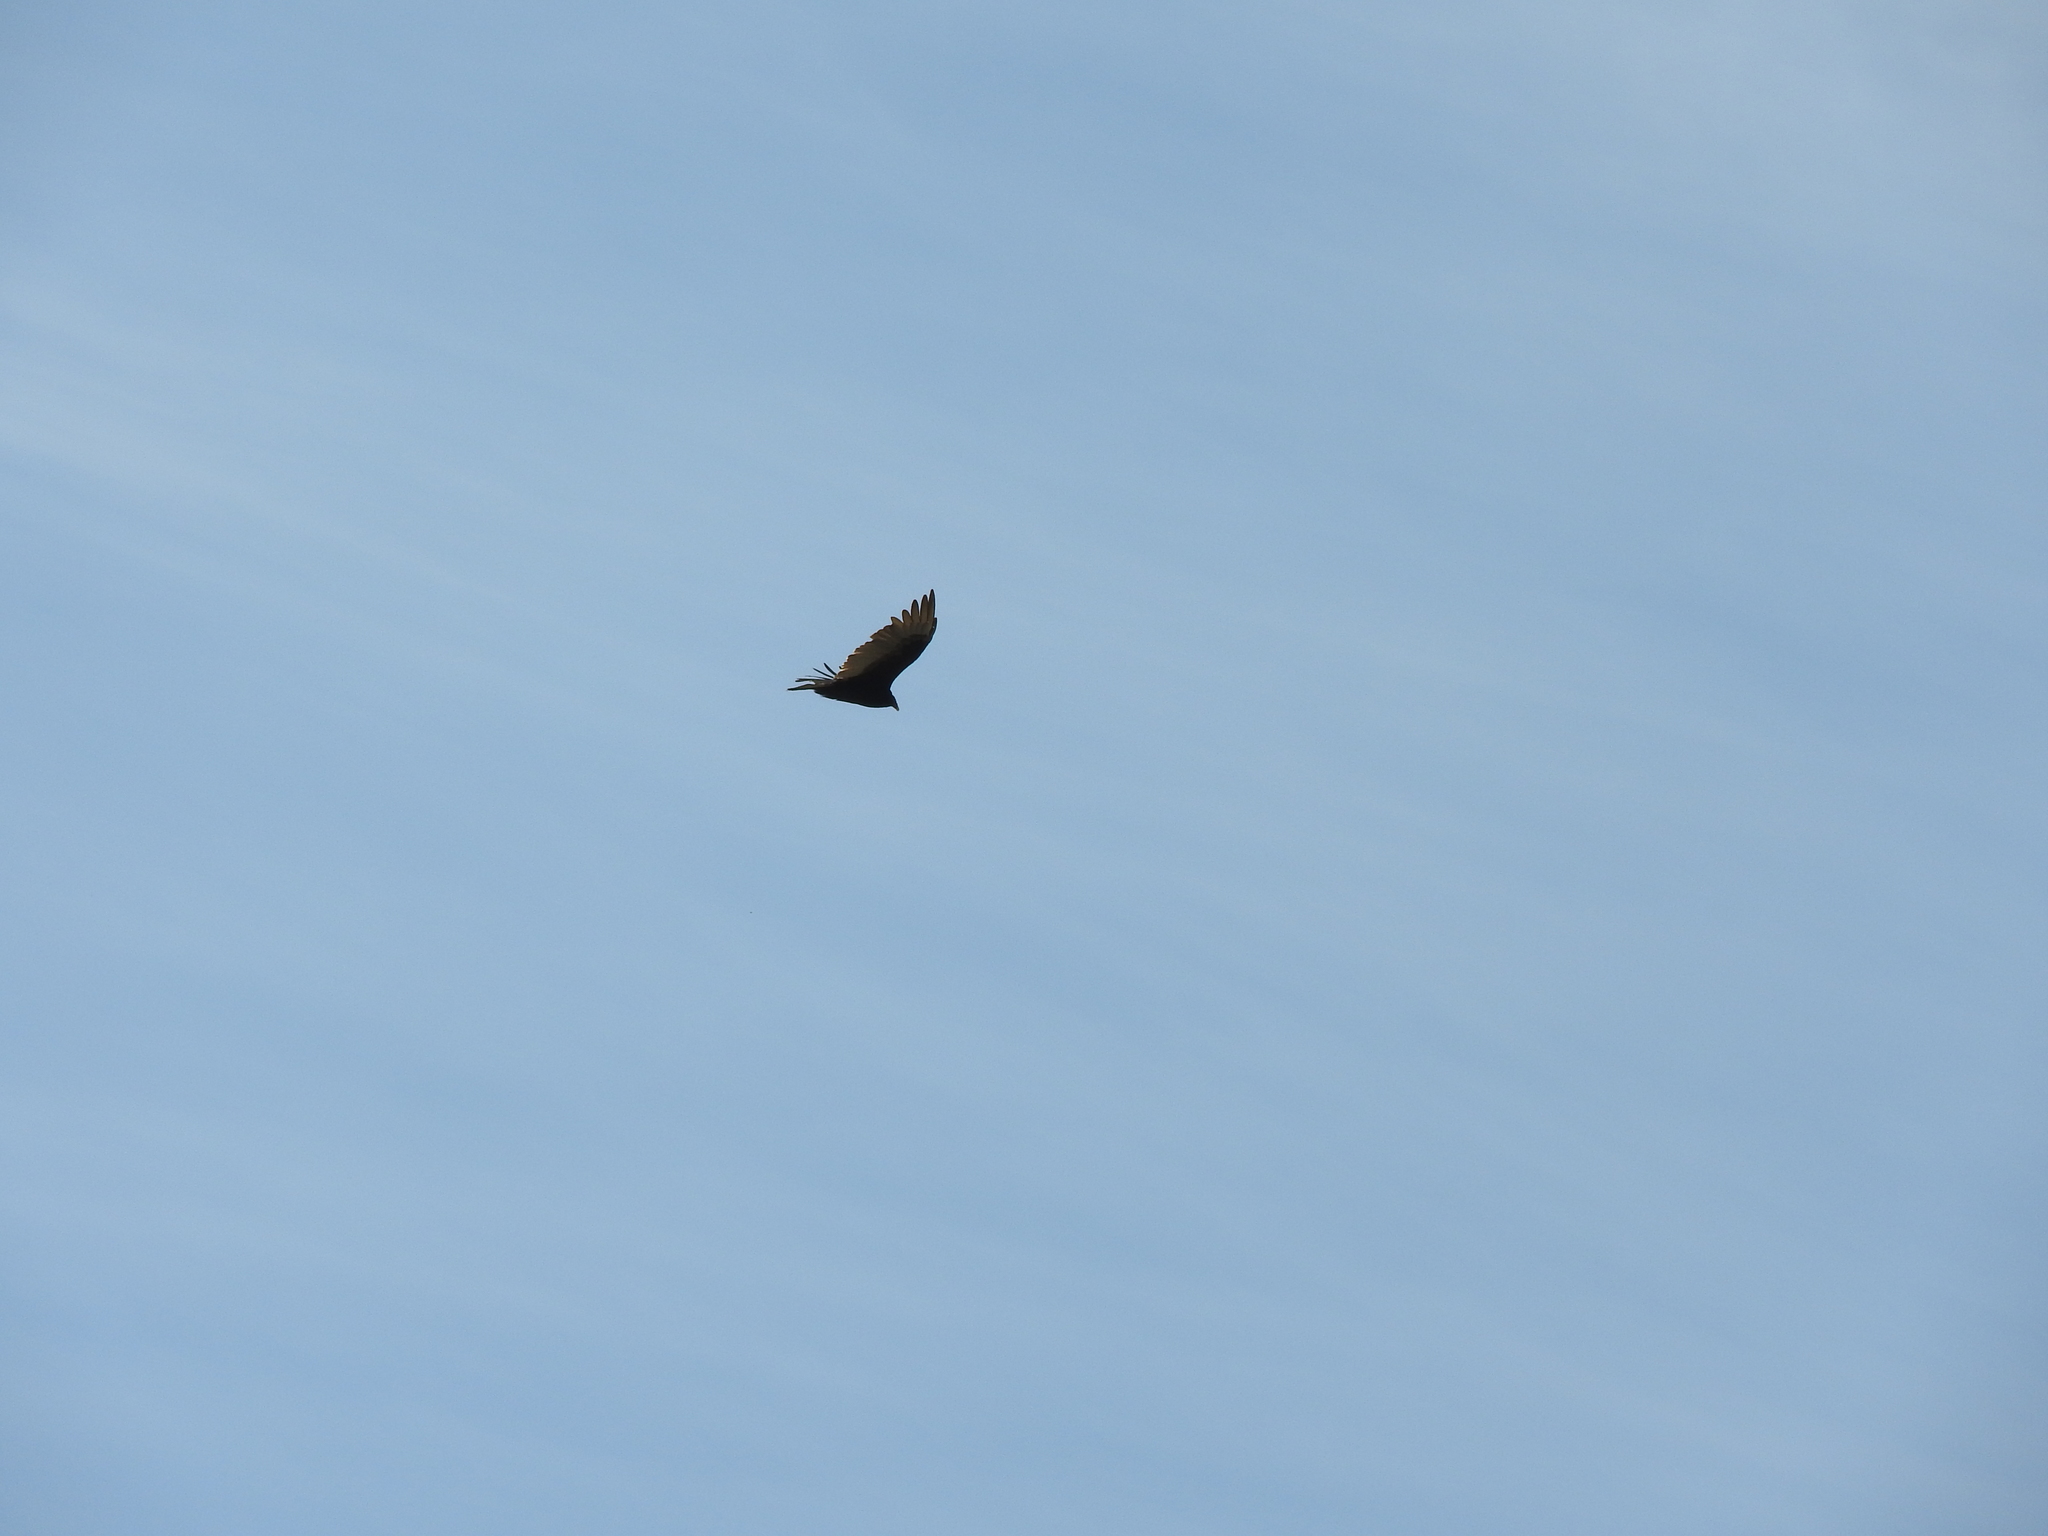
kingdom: Animalia
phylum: Chordata
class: Aves
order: Accipitriformes
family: Cathartidae
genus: Cathartes
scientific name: Cathartes aura
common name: Turkey vulture
